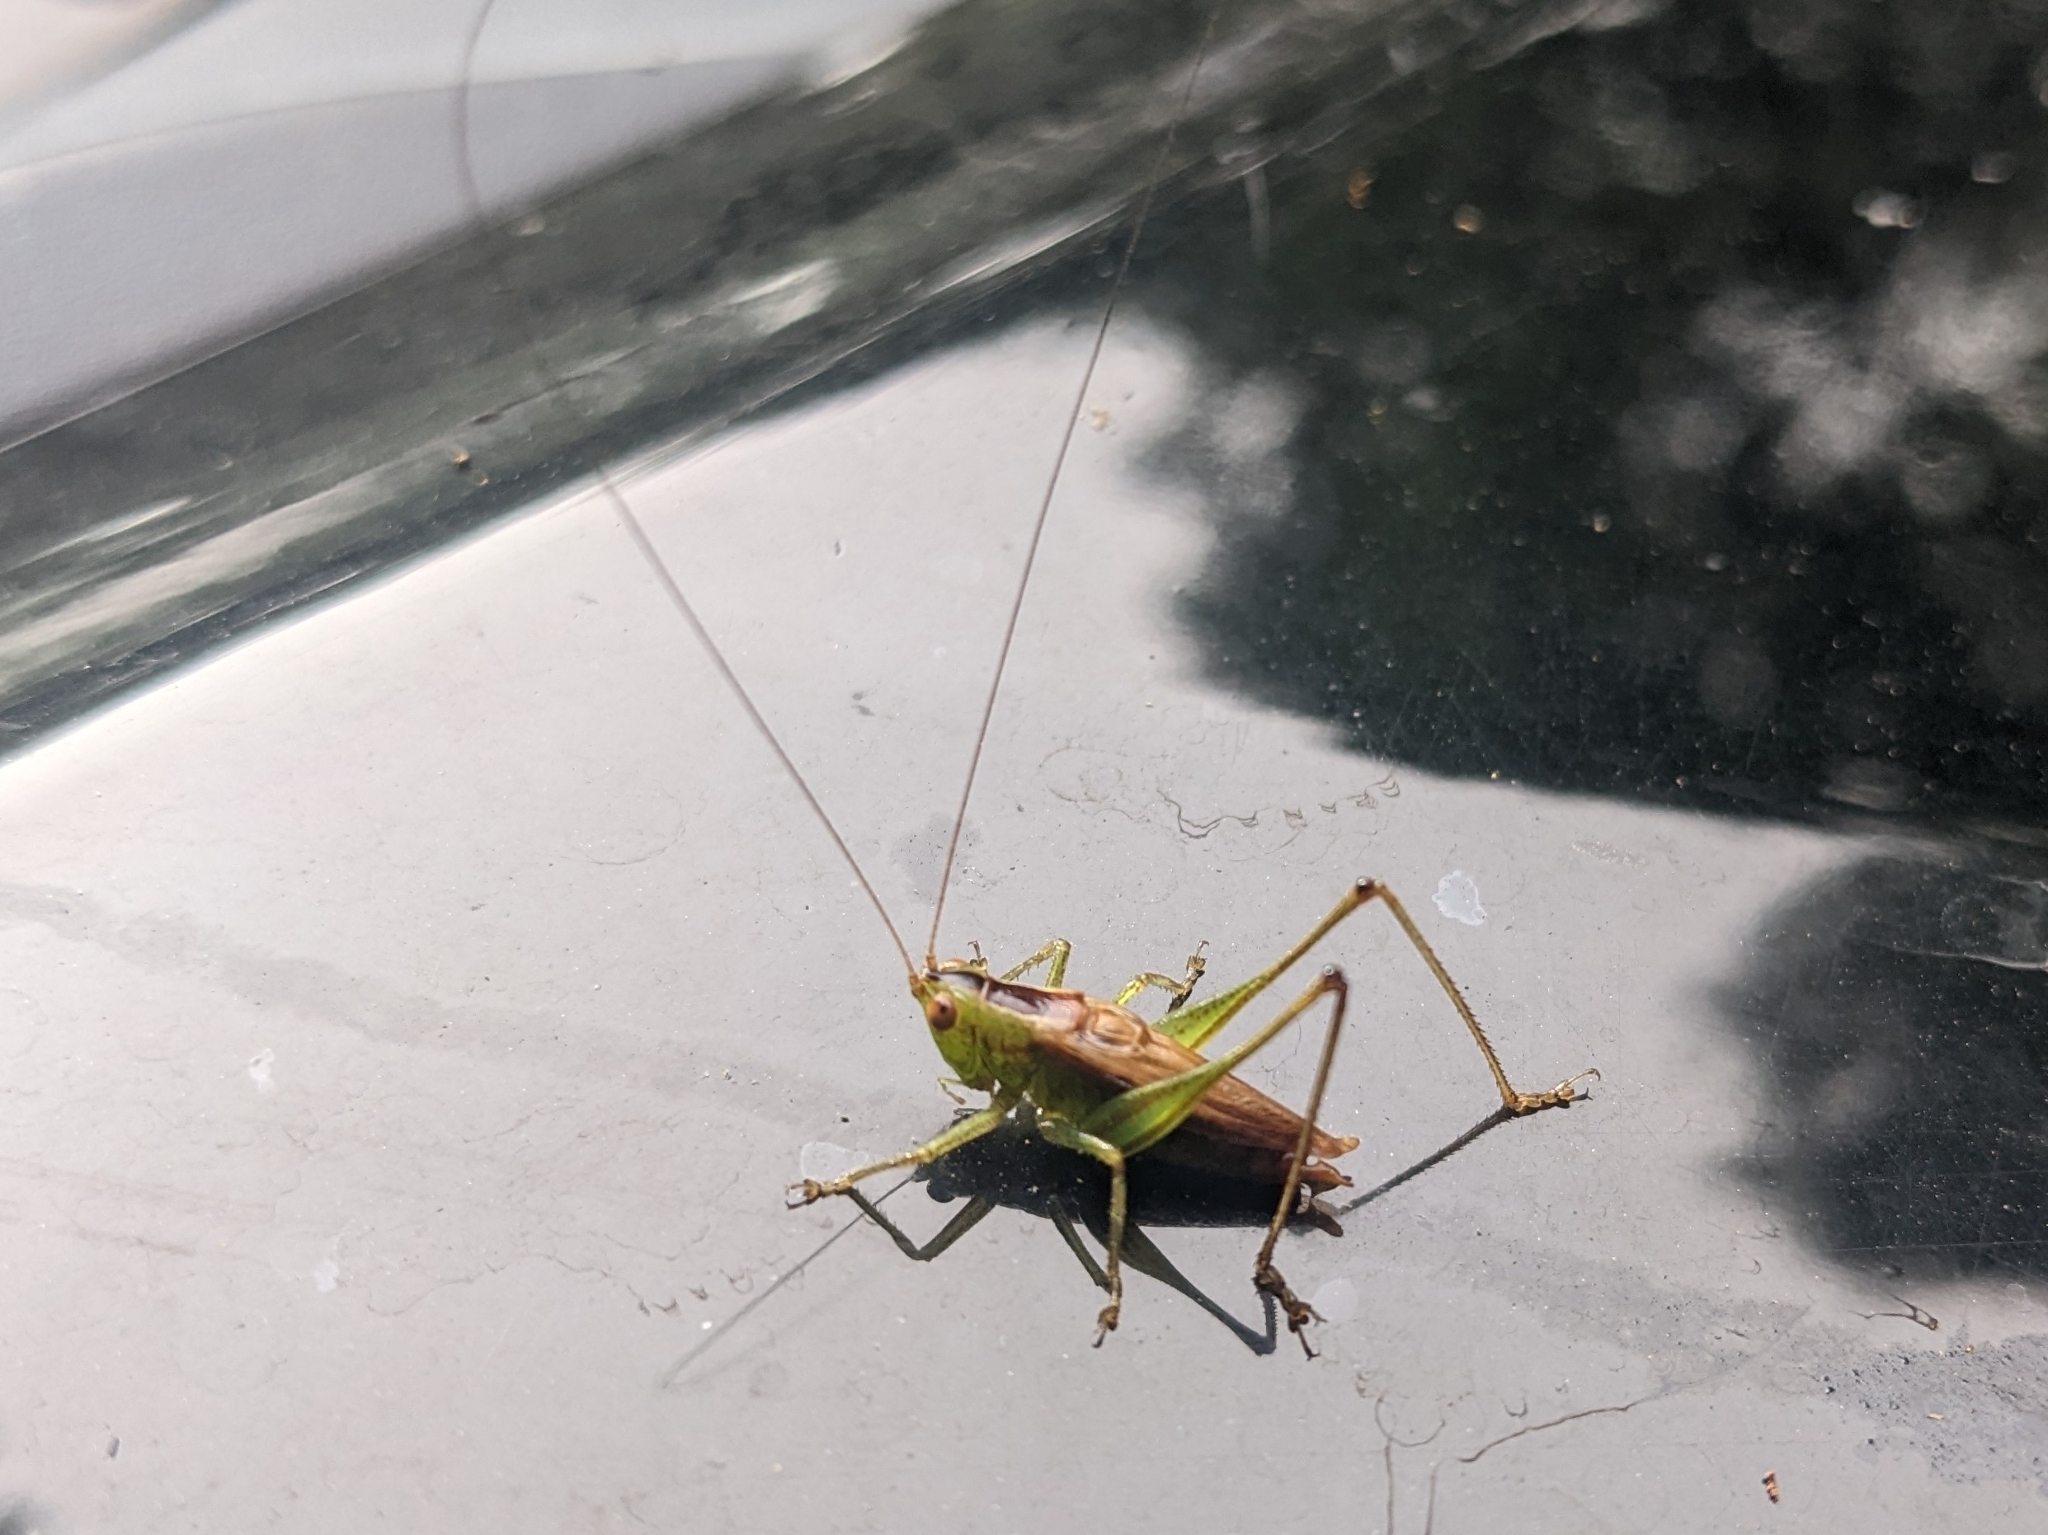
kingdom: Animalia
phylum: Arthropoda
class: Insecta
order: Orthoptera
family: Tettigoniidae
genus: Conocephalus
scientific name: Conocephalus brevipennis
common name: Short-winged meadow katydid
